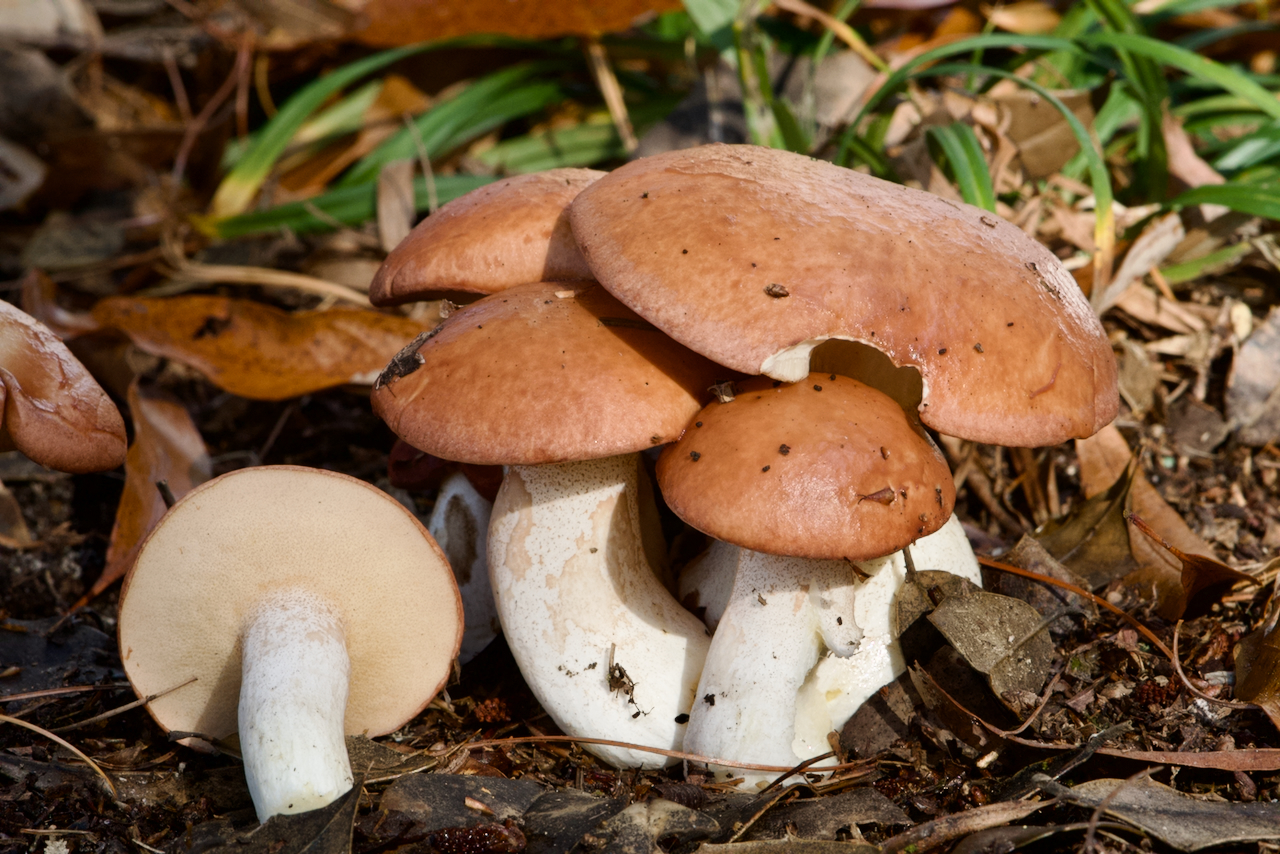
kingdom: Fungi
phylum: Basidiomycota
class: Agaricomycetes
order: Boletales
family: Suillaceae
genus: Fuscoboletinus
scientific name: Fuscoboletinus weaverae
